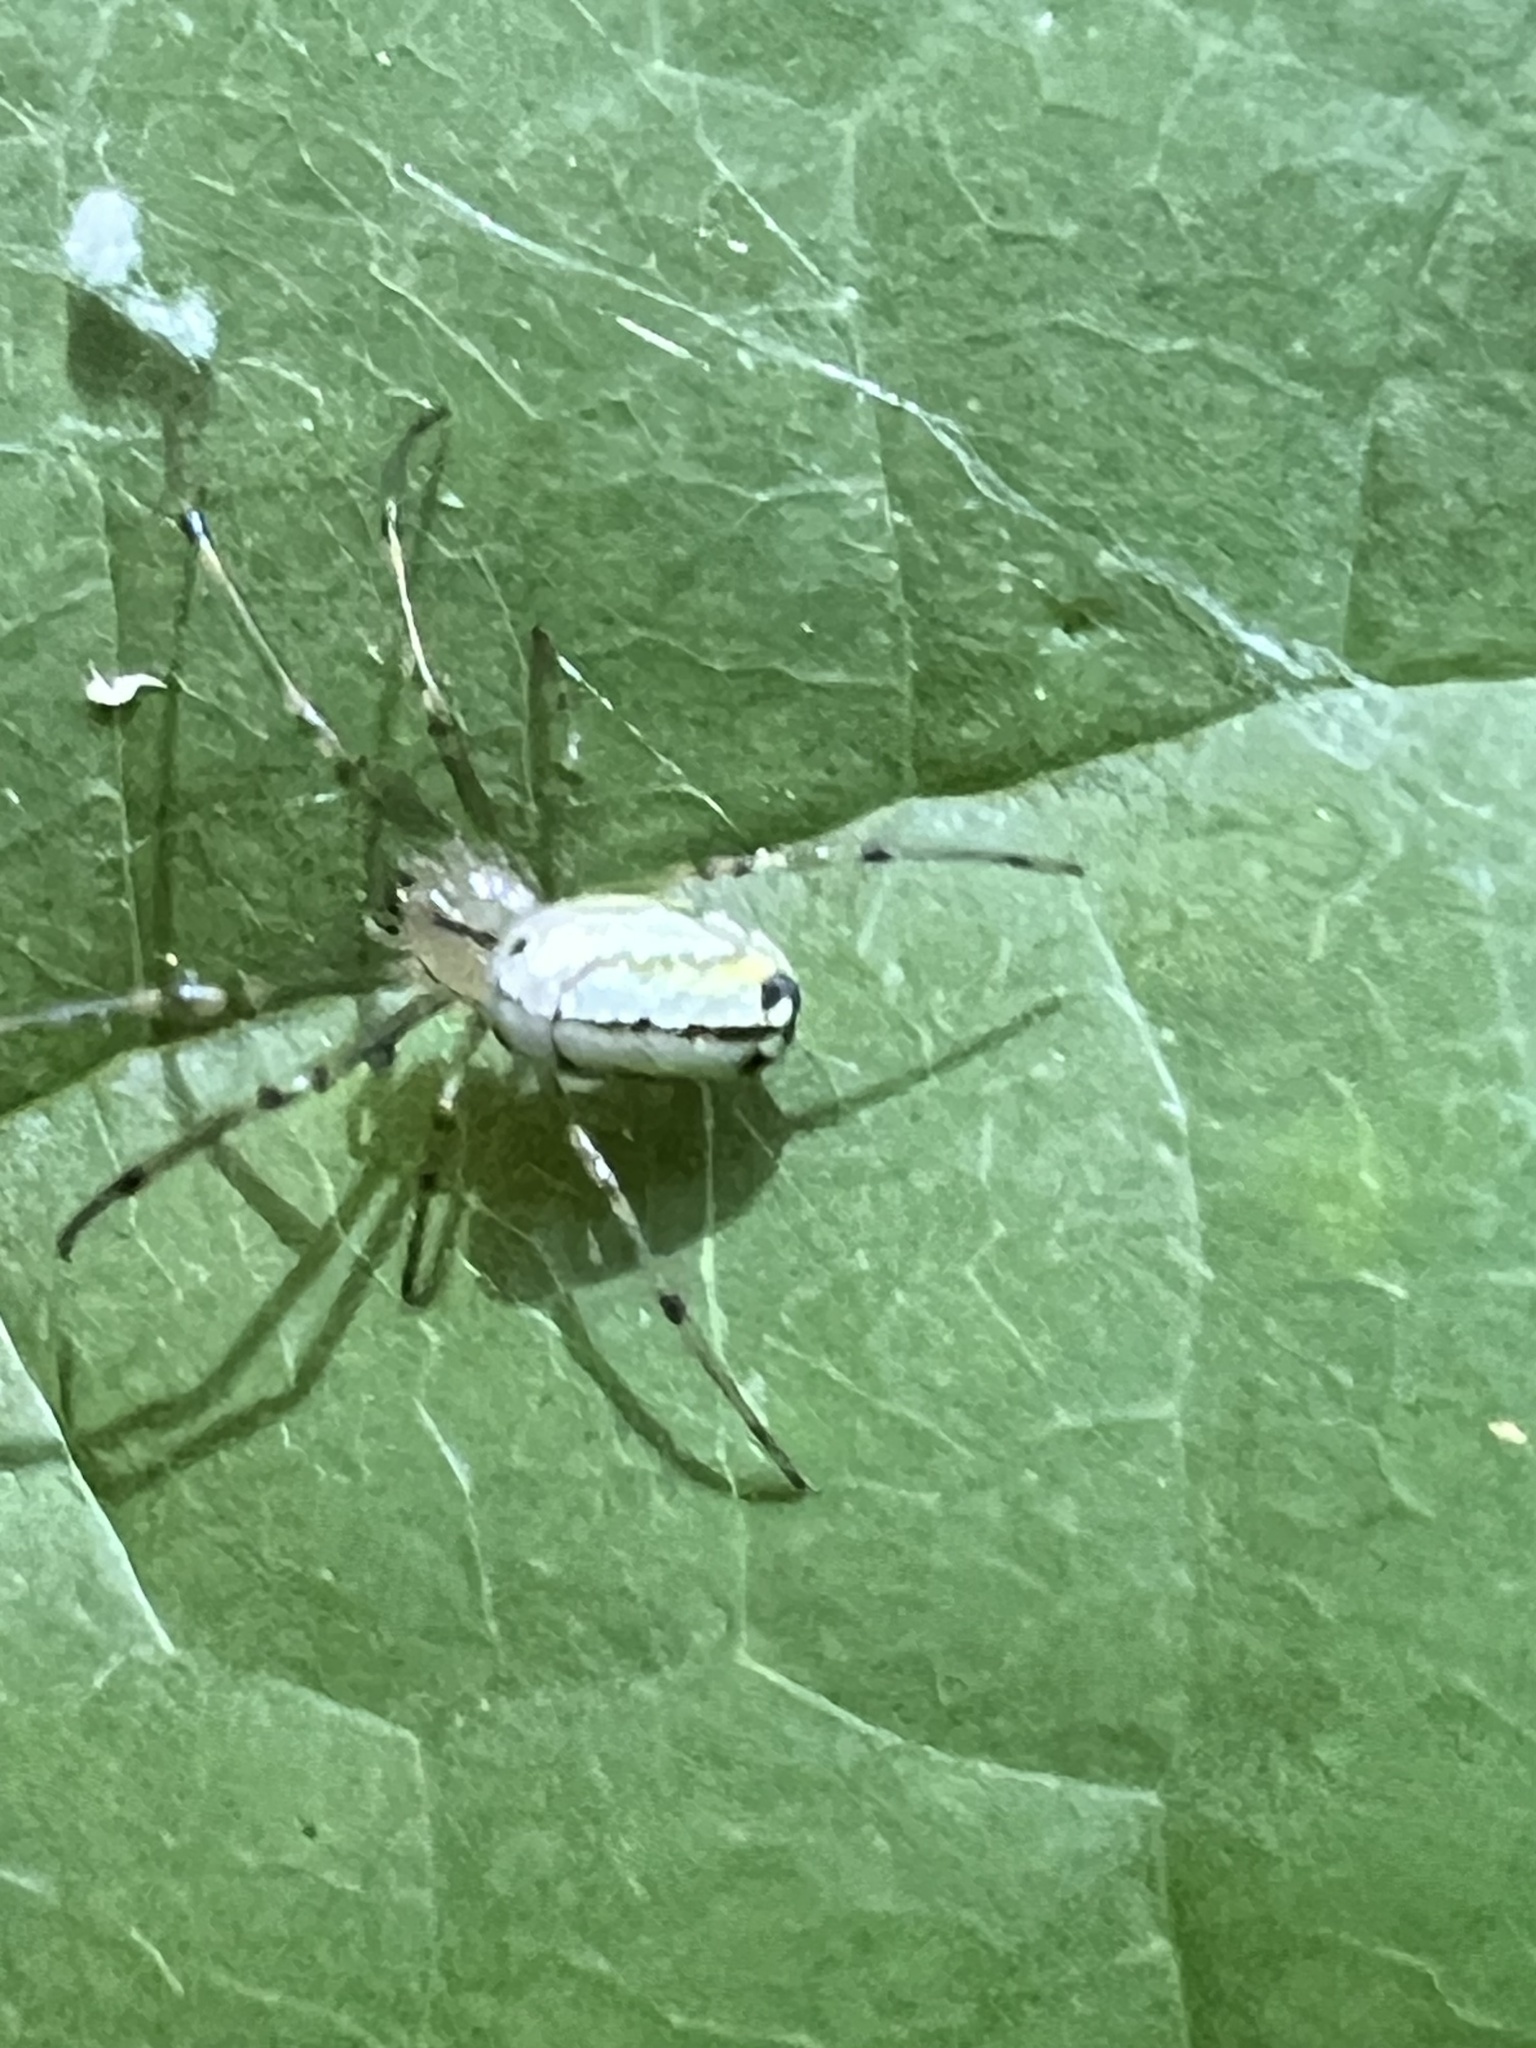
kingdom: Animalia
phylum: Arthropoda
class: Arachnida
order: Araneae
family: Tetragnathidae
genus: Leucauge
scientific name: Leucauge venusta
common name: Longjawed orb weavers
